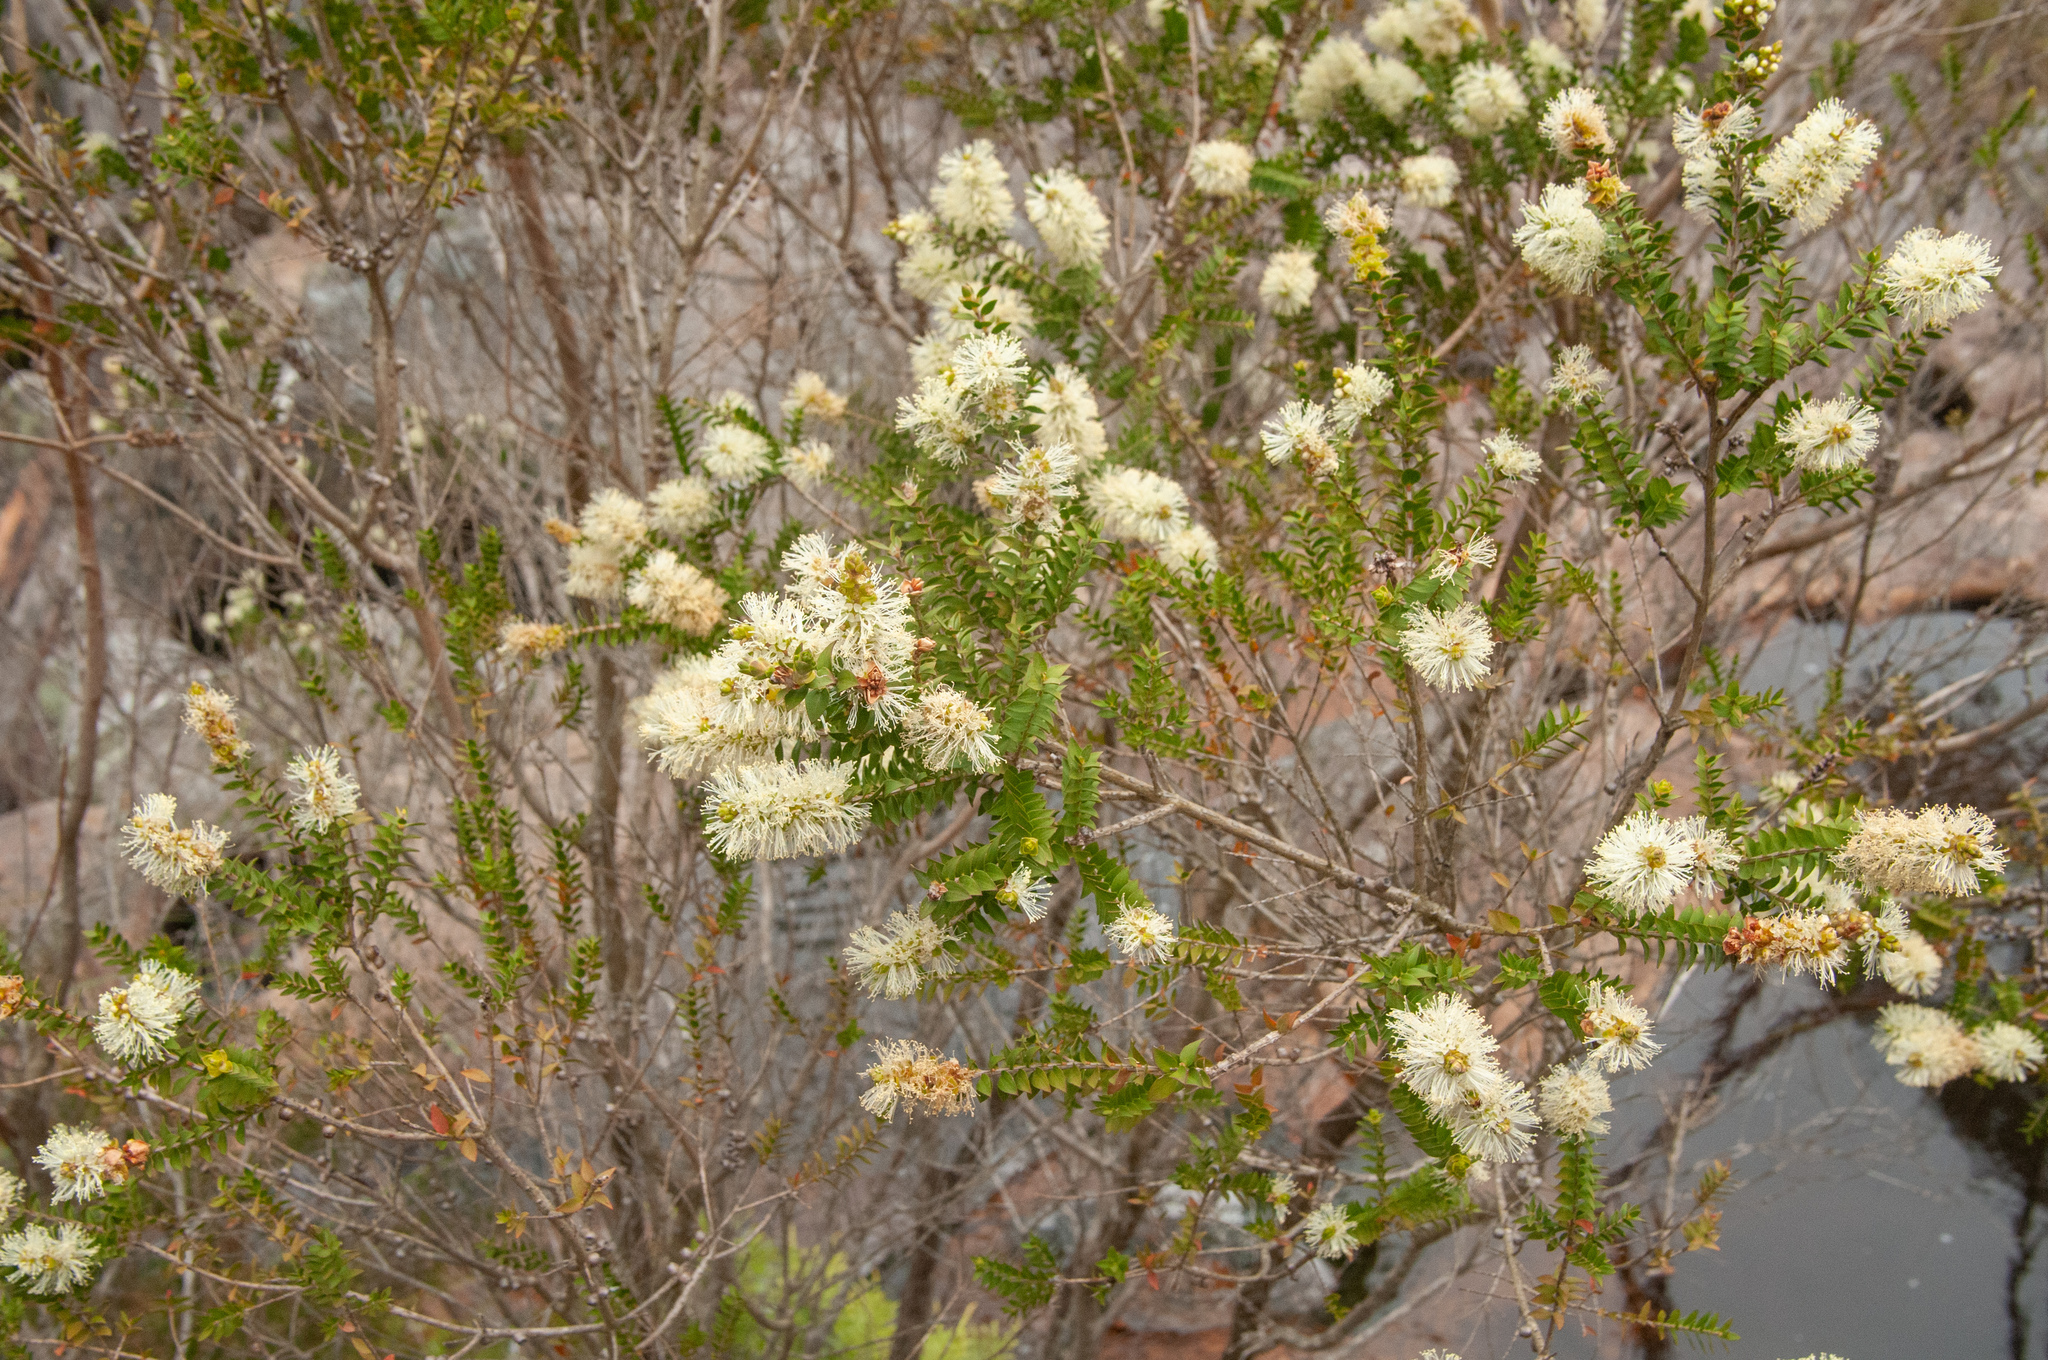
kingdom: Plantae
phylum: Tracheophyta
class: Magnoliopsida
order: Myrtales
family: Myrtaceae
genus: Melaleuca
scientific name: Melaleuca squarrosa
